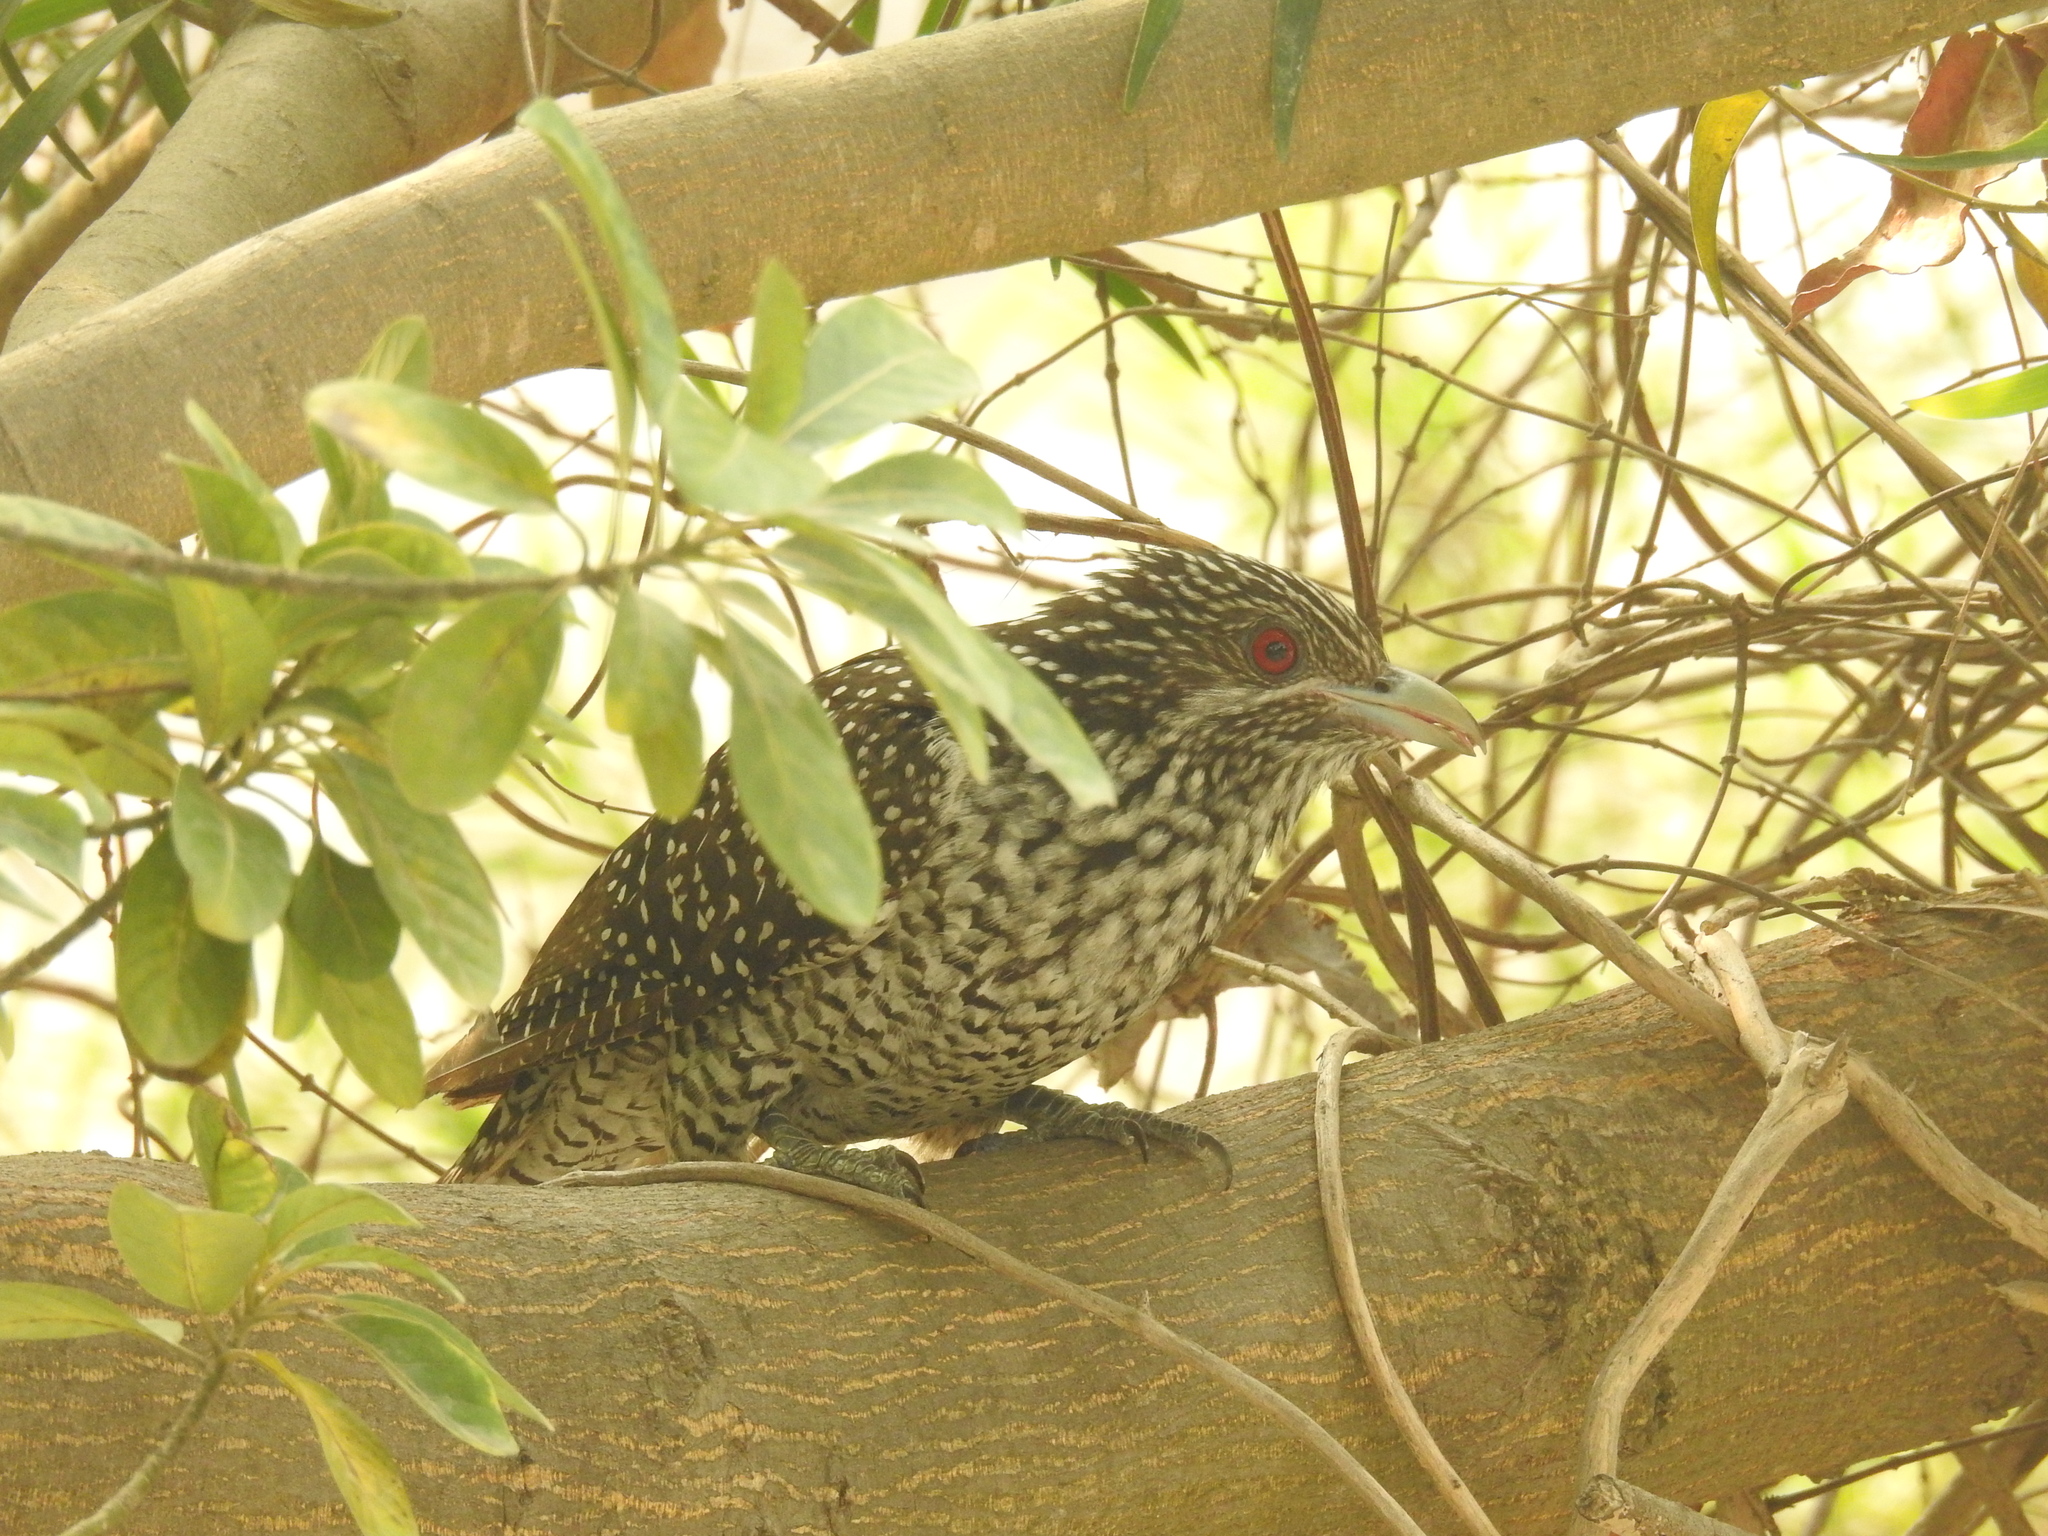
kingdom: Animalia
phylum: Chordata
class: Aves
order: Cuculiformes
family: Cuculidae
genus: Eudynamys
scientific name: Eudynamys scolopaceus
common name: Asian koel
